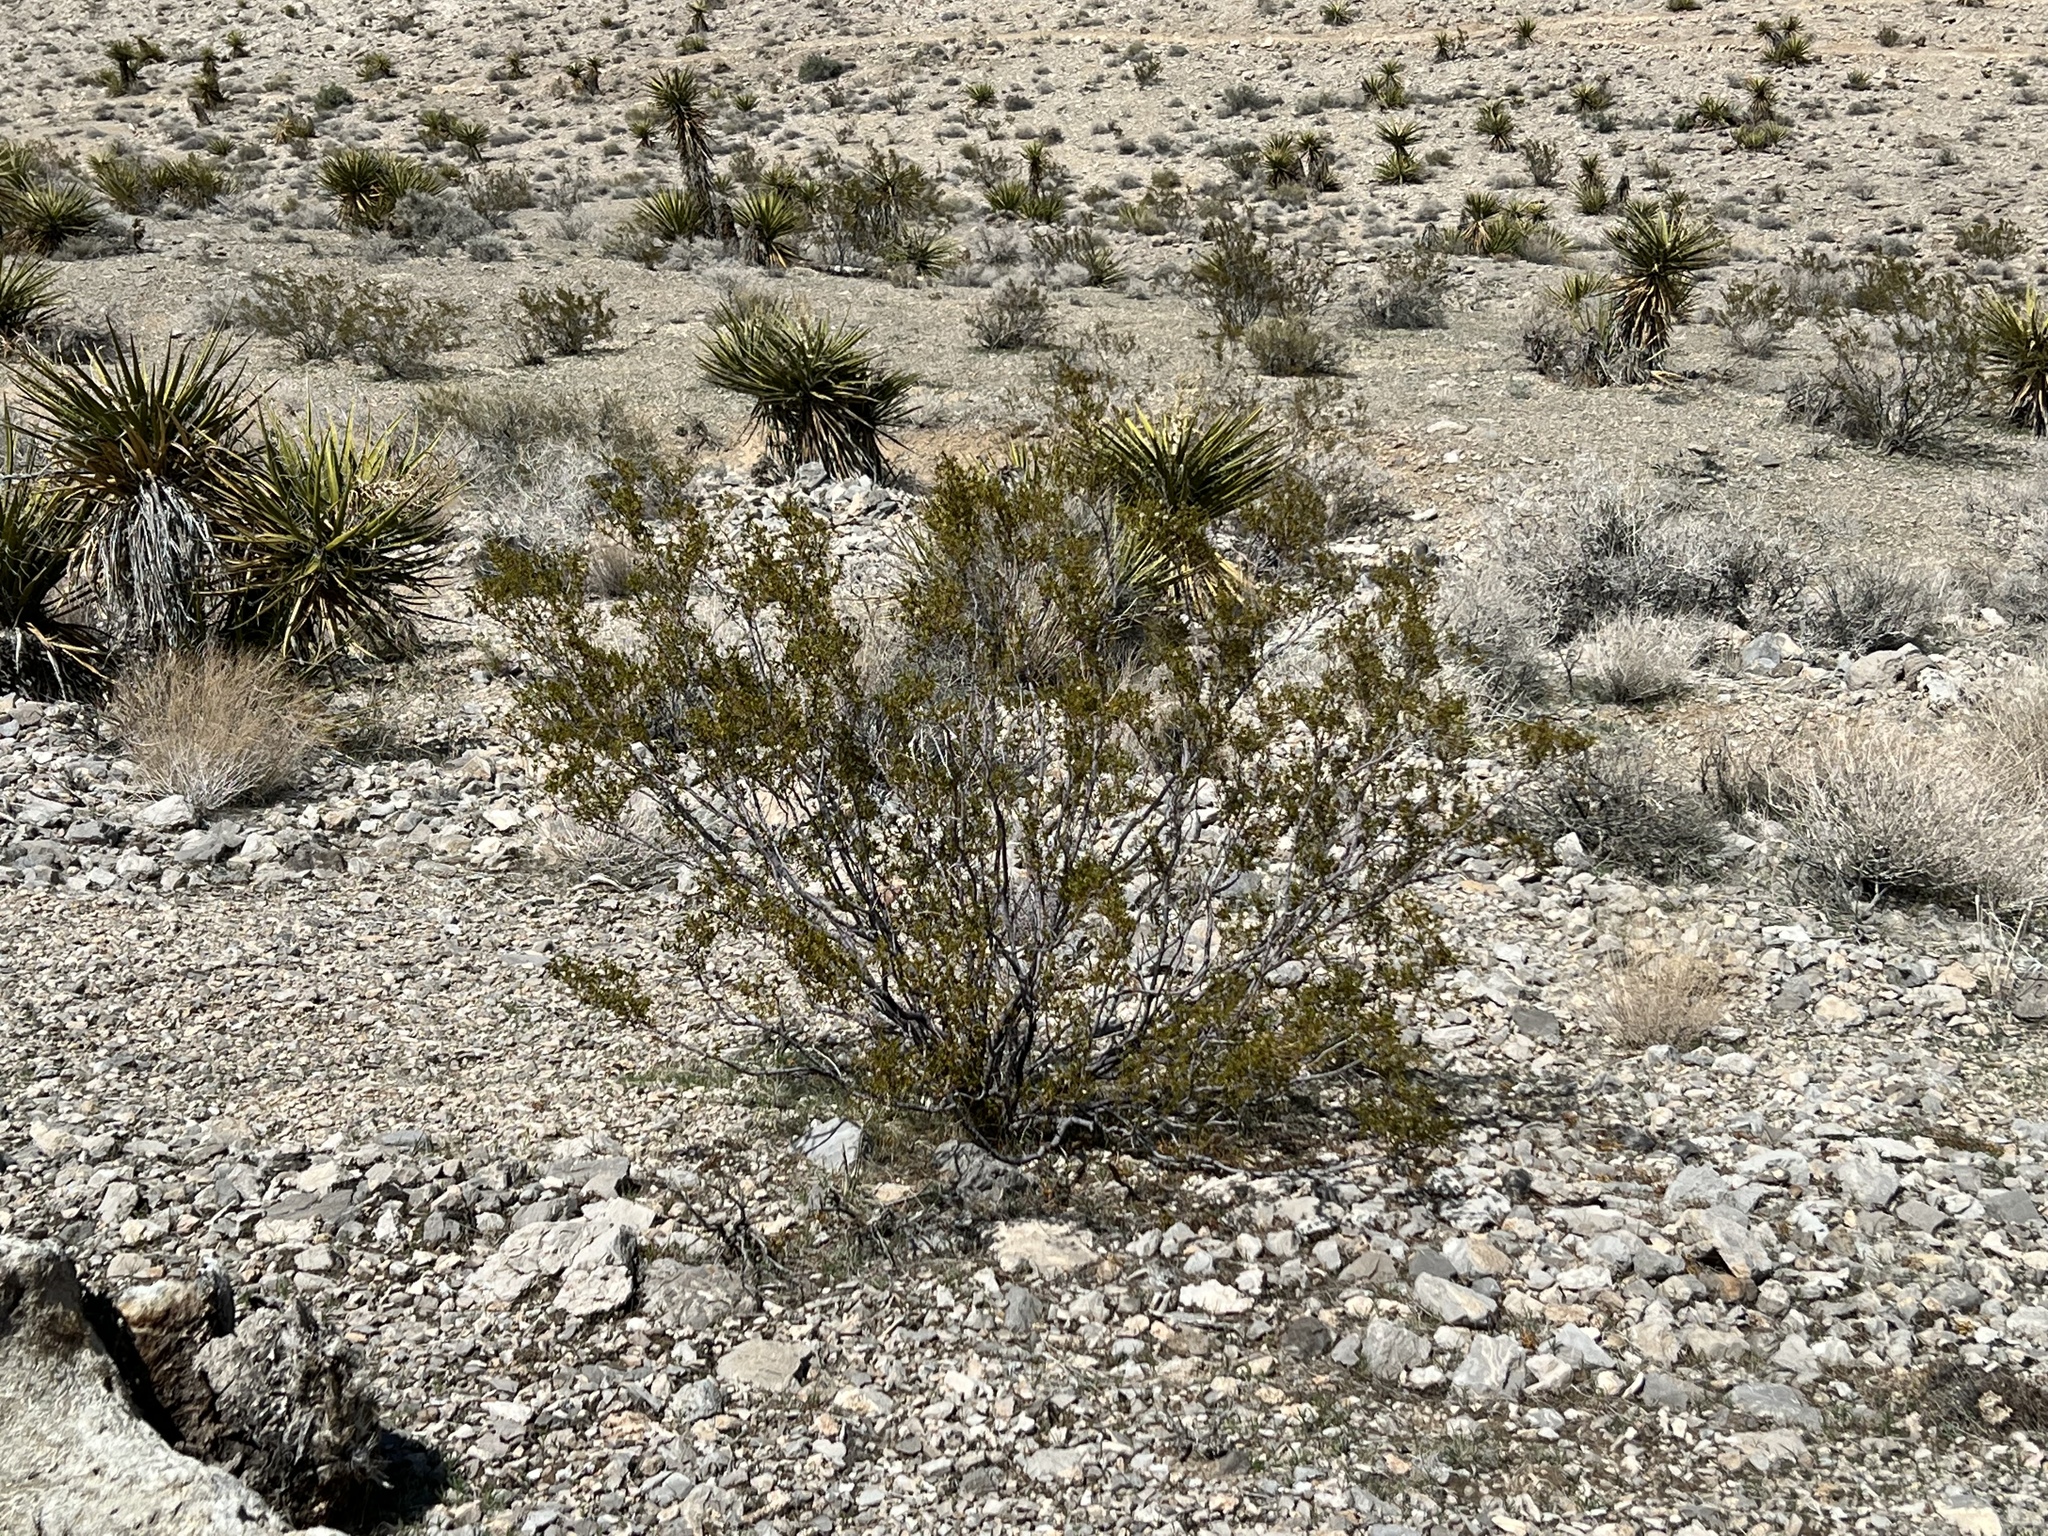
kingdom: Plantae
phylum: Tracheophyta
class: Magnoliopsida
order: Zygophyllales
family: Zygophyllaceae
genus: Larrea
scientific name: Larrea tridentata
